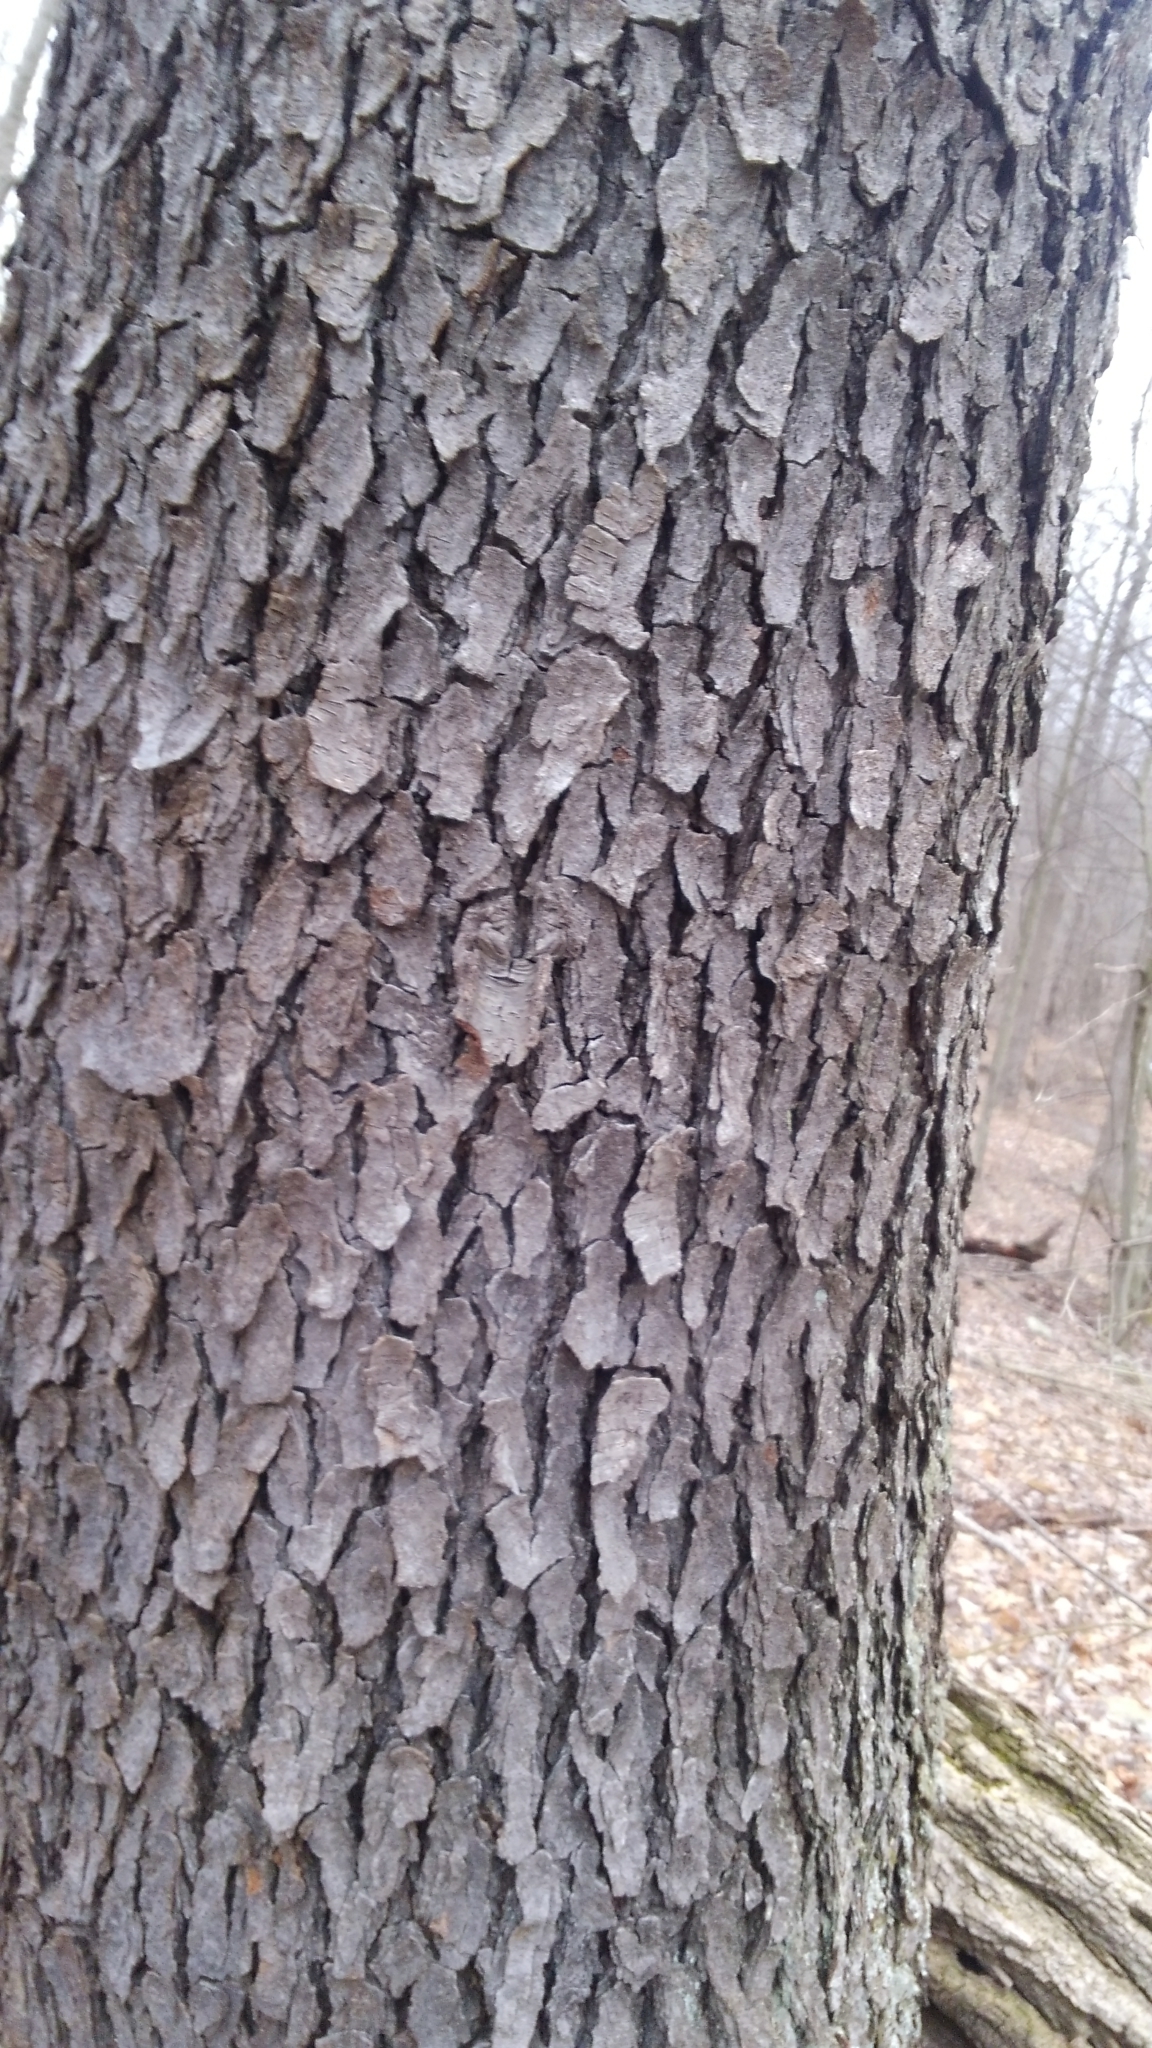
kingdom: Plantae
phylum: Tracheophyta
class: Magnoliopsida
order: Rosales
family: Rosaceae
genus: Prunus
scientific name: Prunus serotina
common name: Black cherry
